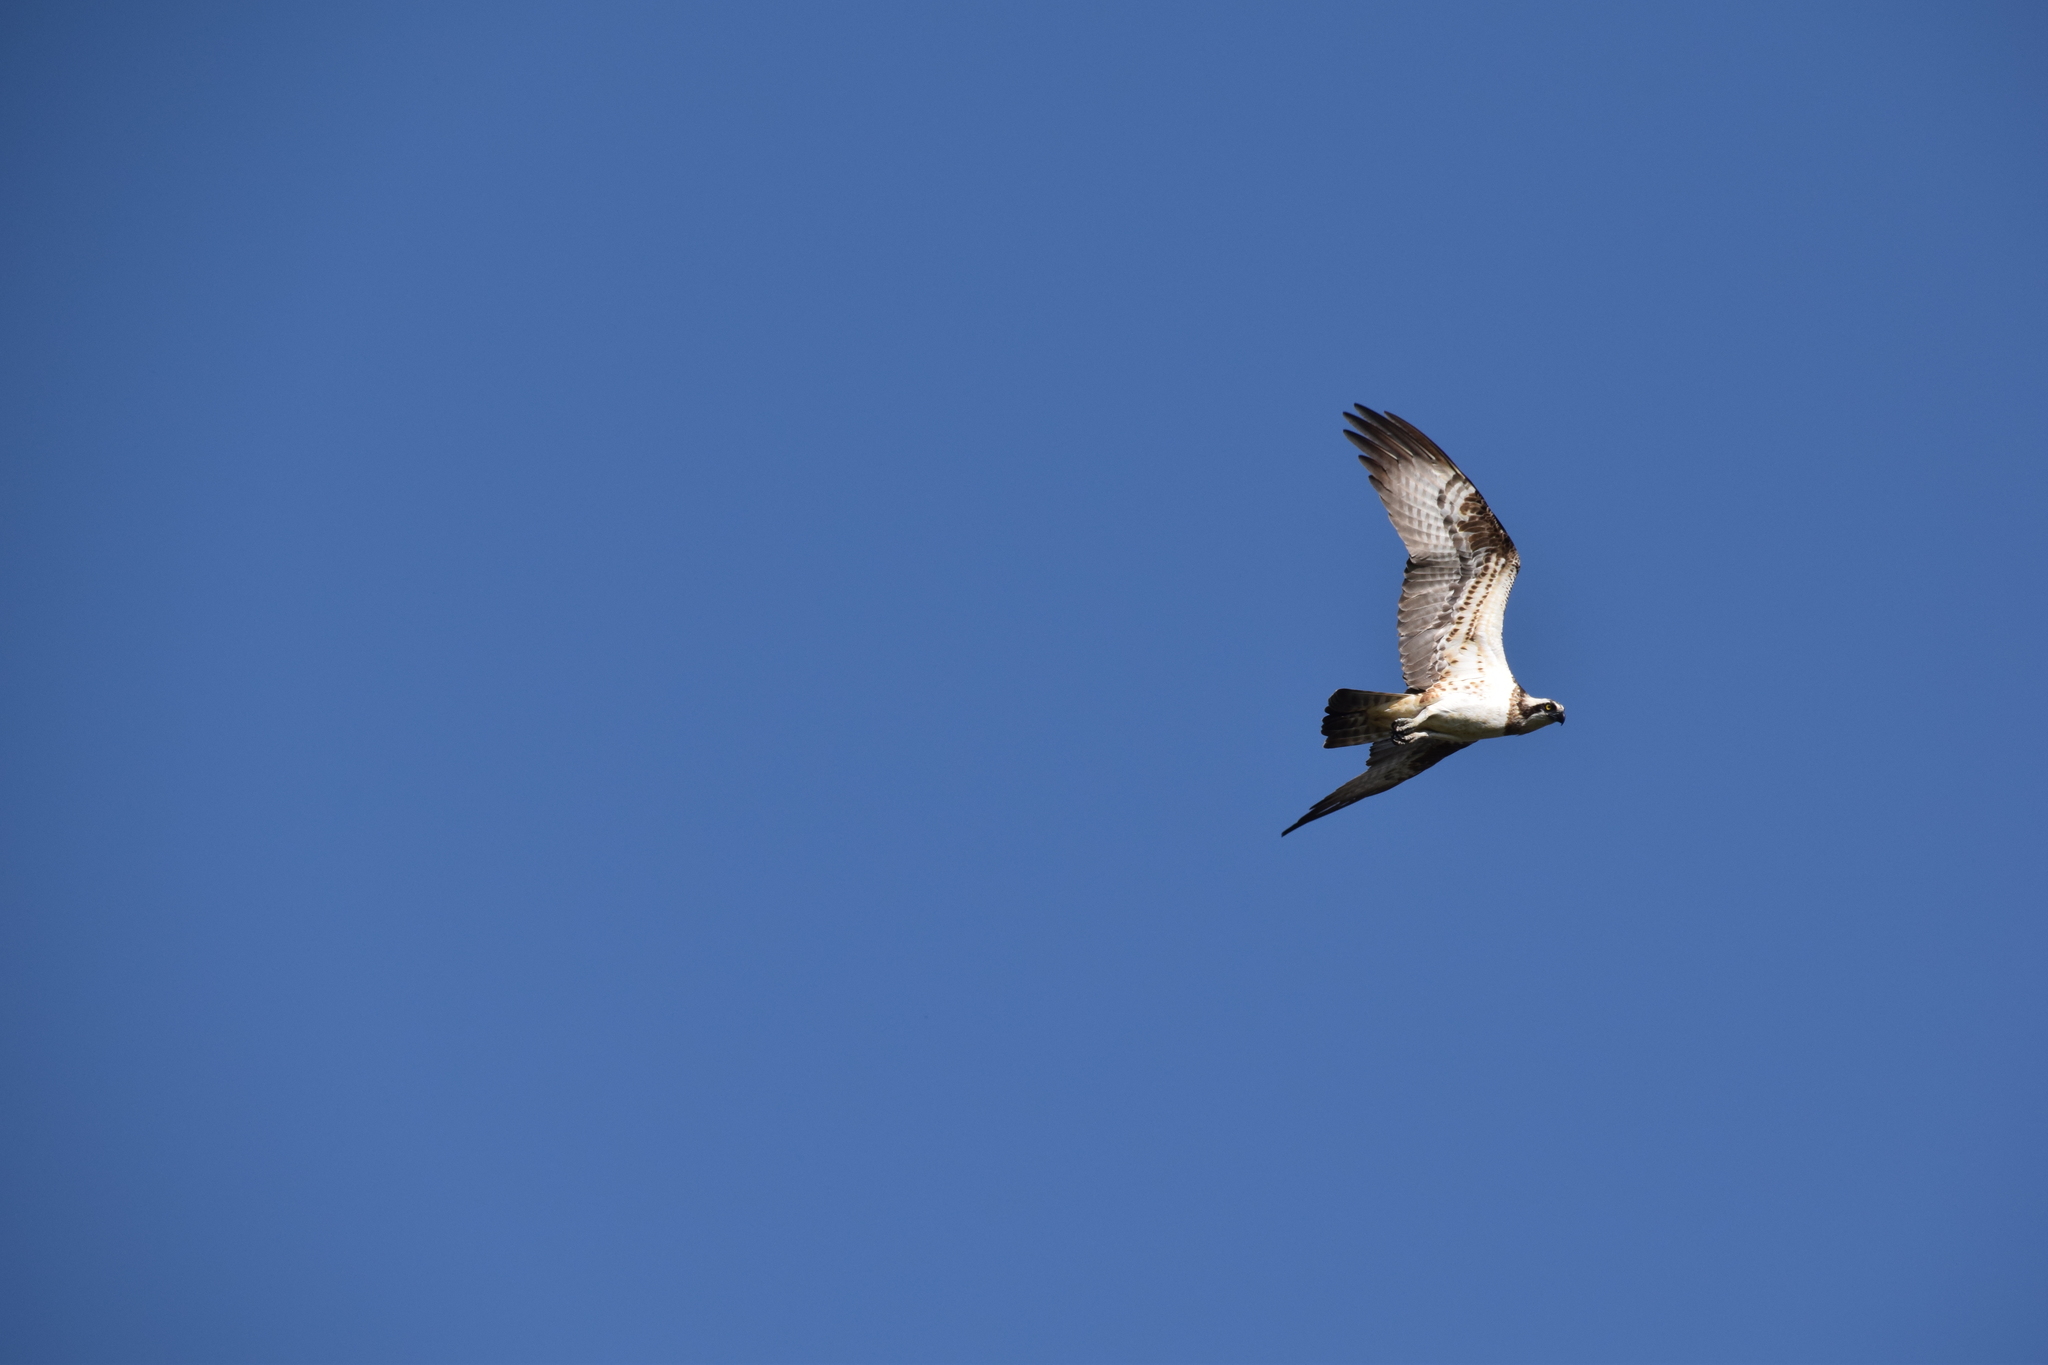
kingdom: Animalia
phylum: Chordata
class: Aves
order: Accipitriformes
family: Pandionidae
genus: Pandion
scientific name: Pandion haliaetus
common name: Osprey
